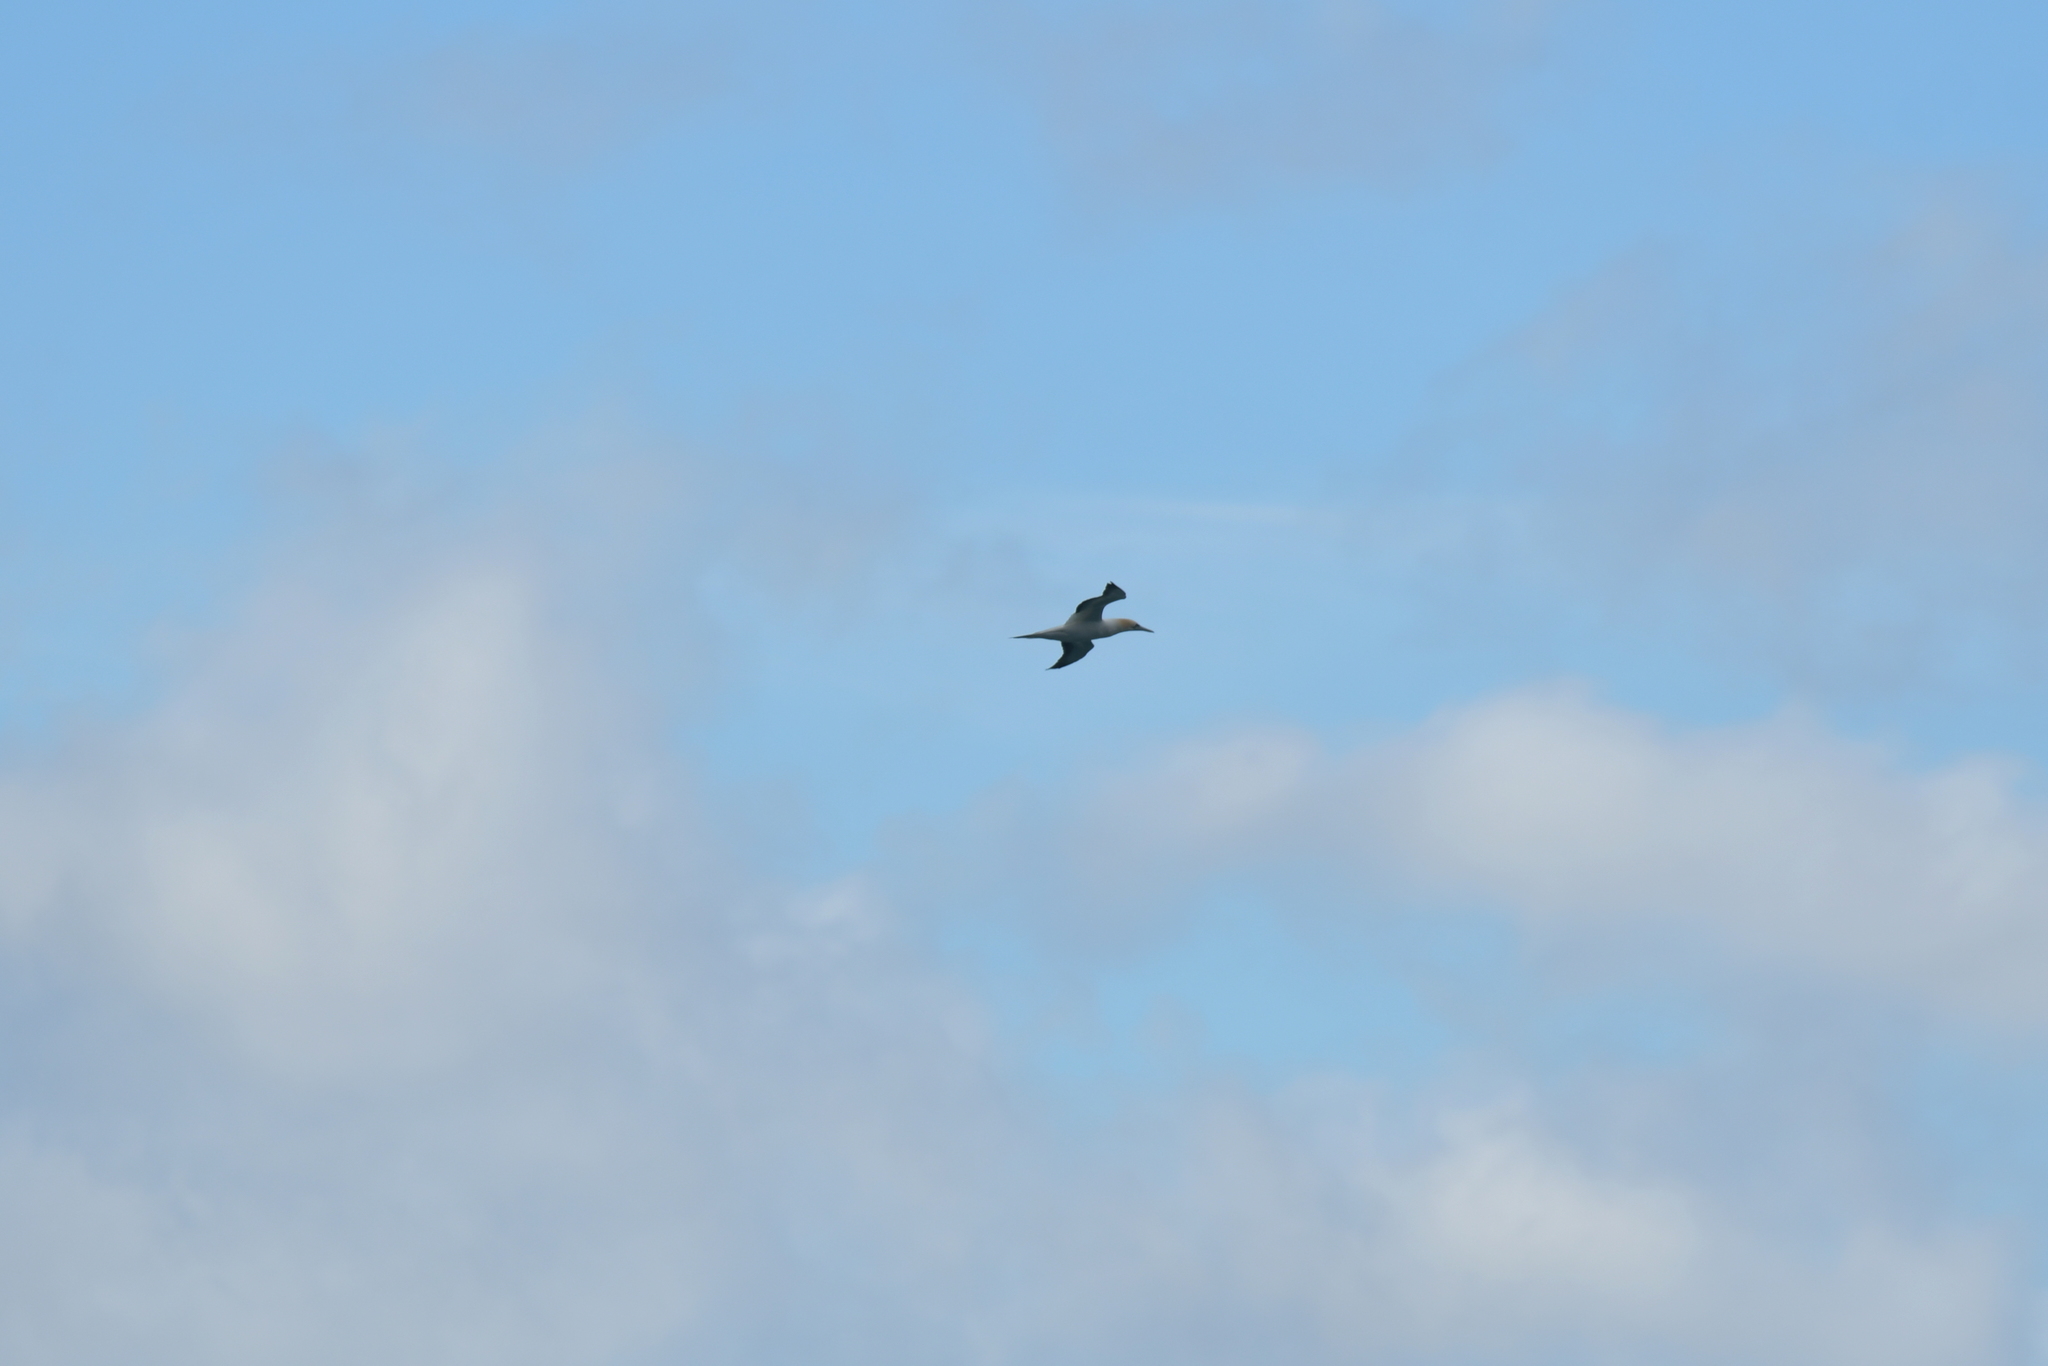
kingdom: Animalia
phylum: Chordata
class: Aves
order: Suliformes
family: Sulidae
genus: Morus
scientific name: Morus serrator
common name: Australasian gannet
